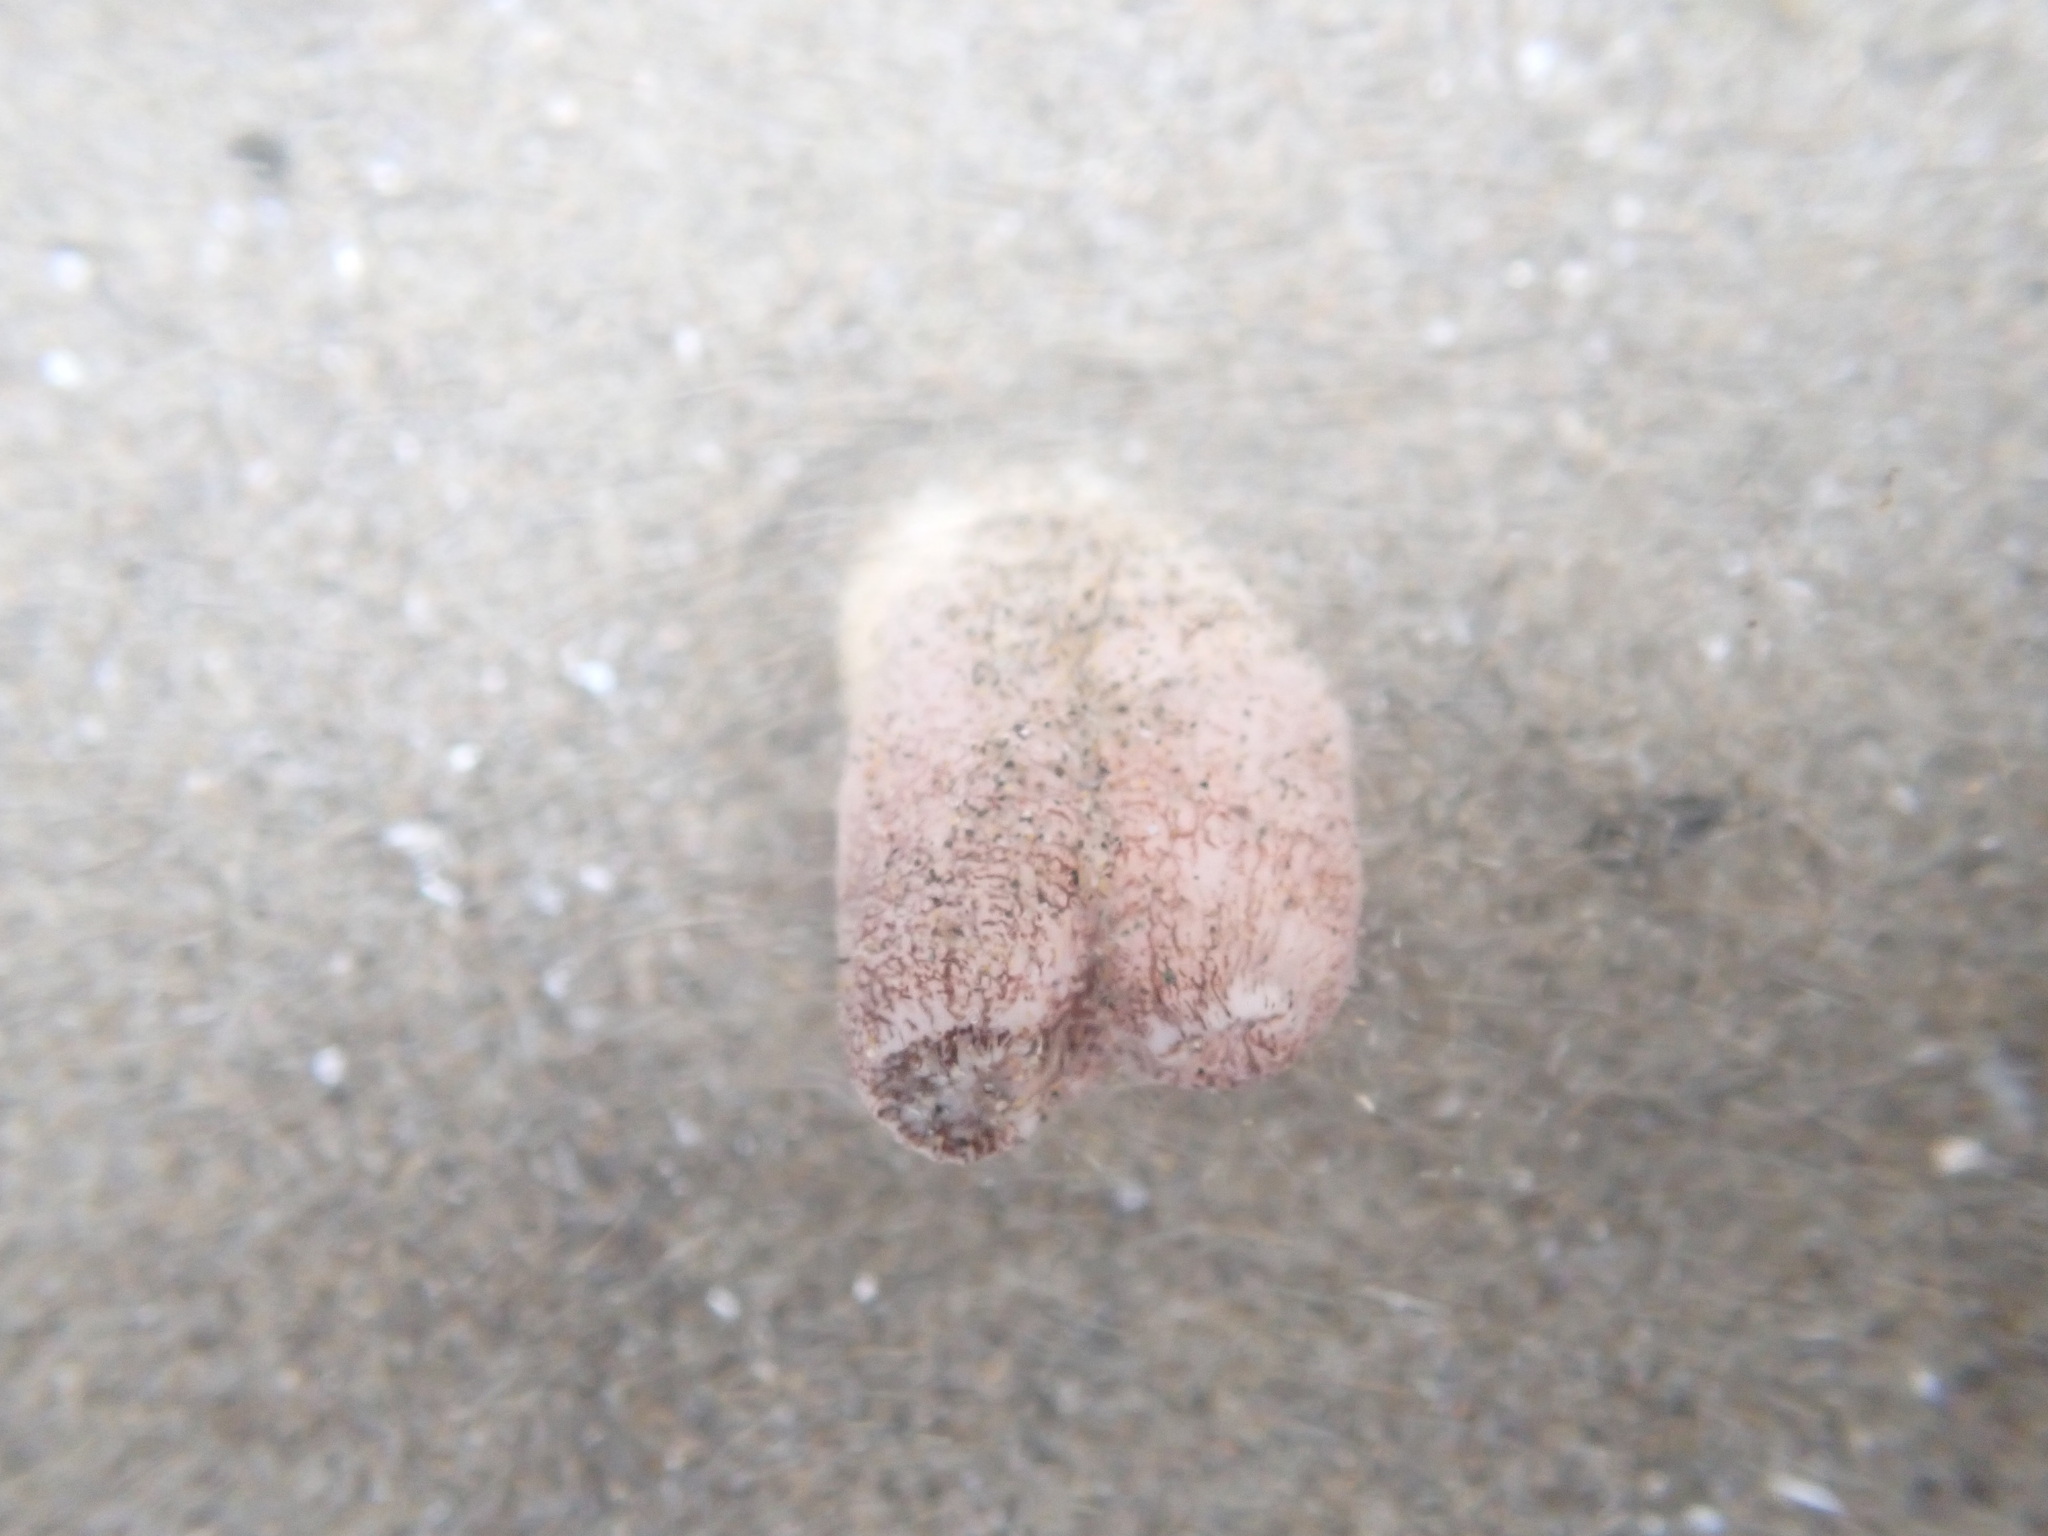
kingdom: Animalia
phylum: Mollusca
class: Bivalvia
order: Myida
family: Pholadidae
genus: Zirfaea
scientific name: Zirfaea pilsbryi
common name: Rough piddock
